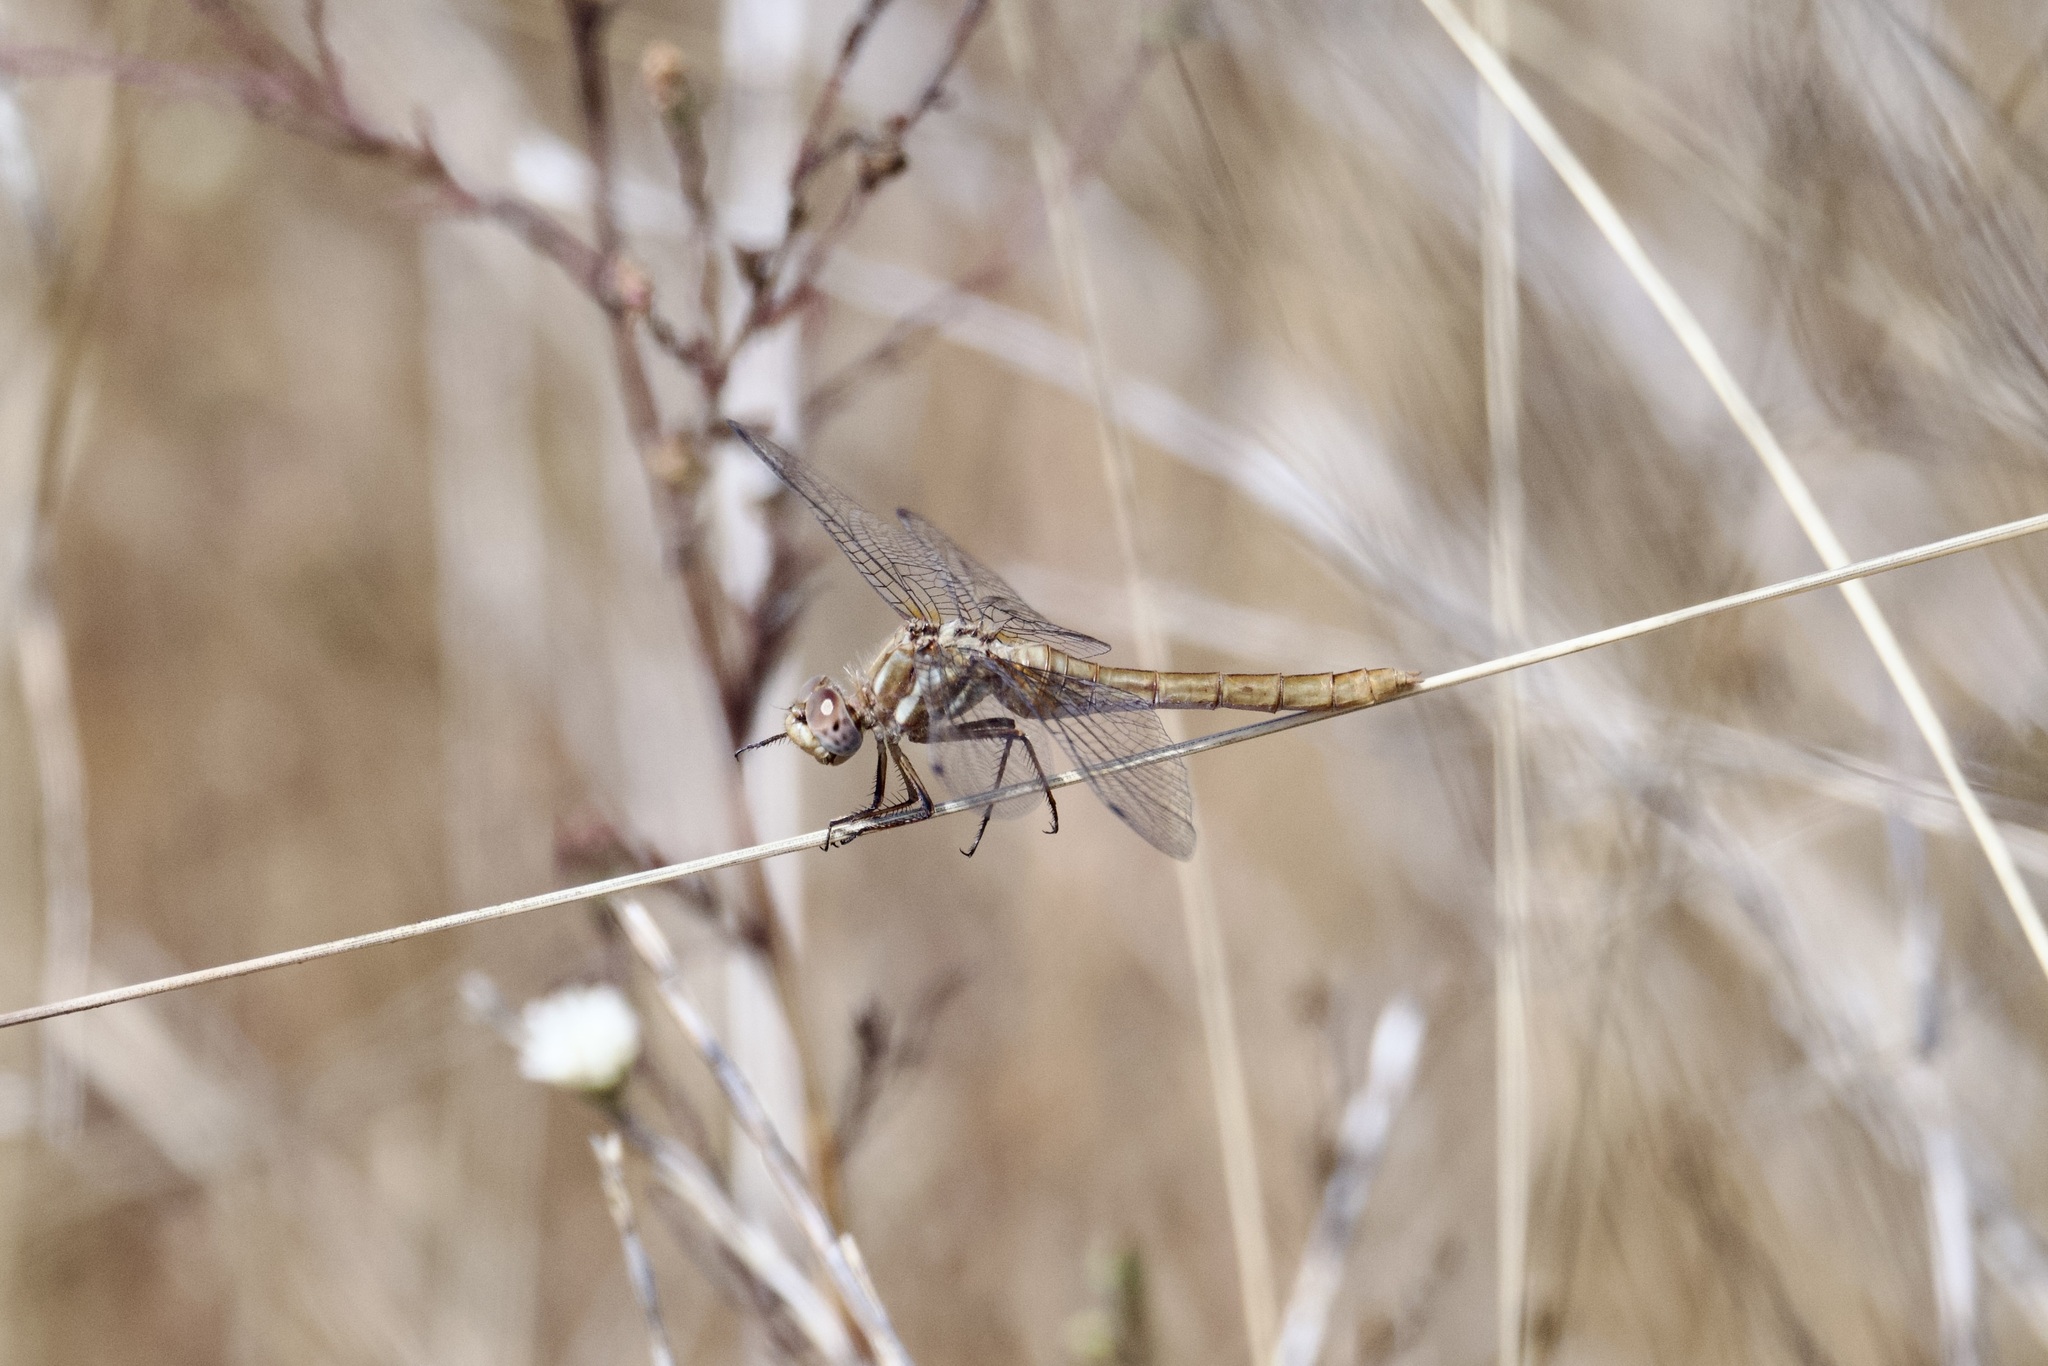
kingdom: Animalia
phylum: Arthropoda
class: Insecta
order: Odonata
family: Libellulidae
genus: Sympetrum
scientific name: Sympetrum pallipes
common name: Striped meadowhawk
